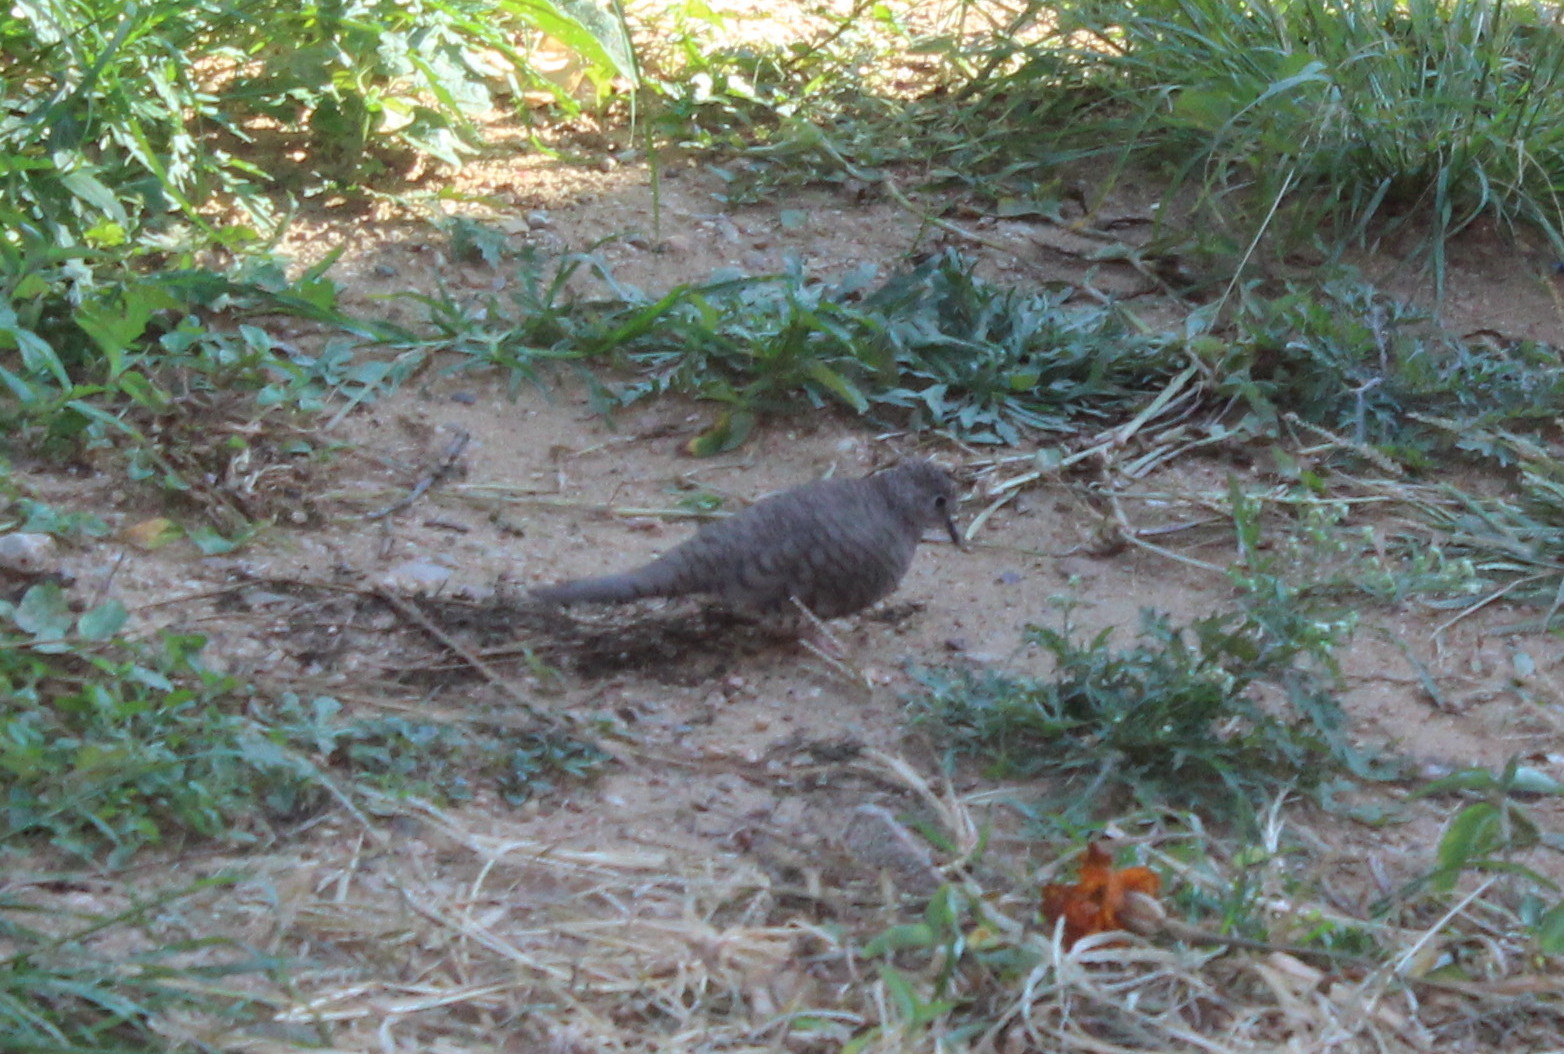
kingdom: Animalia
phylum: Chordata
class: Aves
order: Columbiformes
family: Columbidae
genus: Columbina
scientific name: Columbina inca
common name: Inca dove
